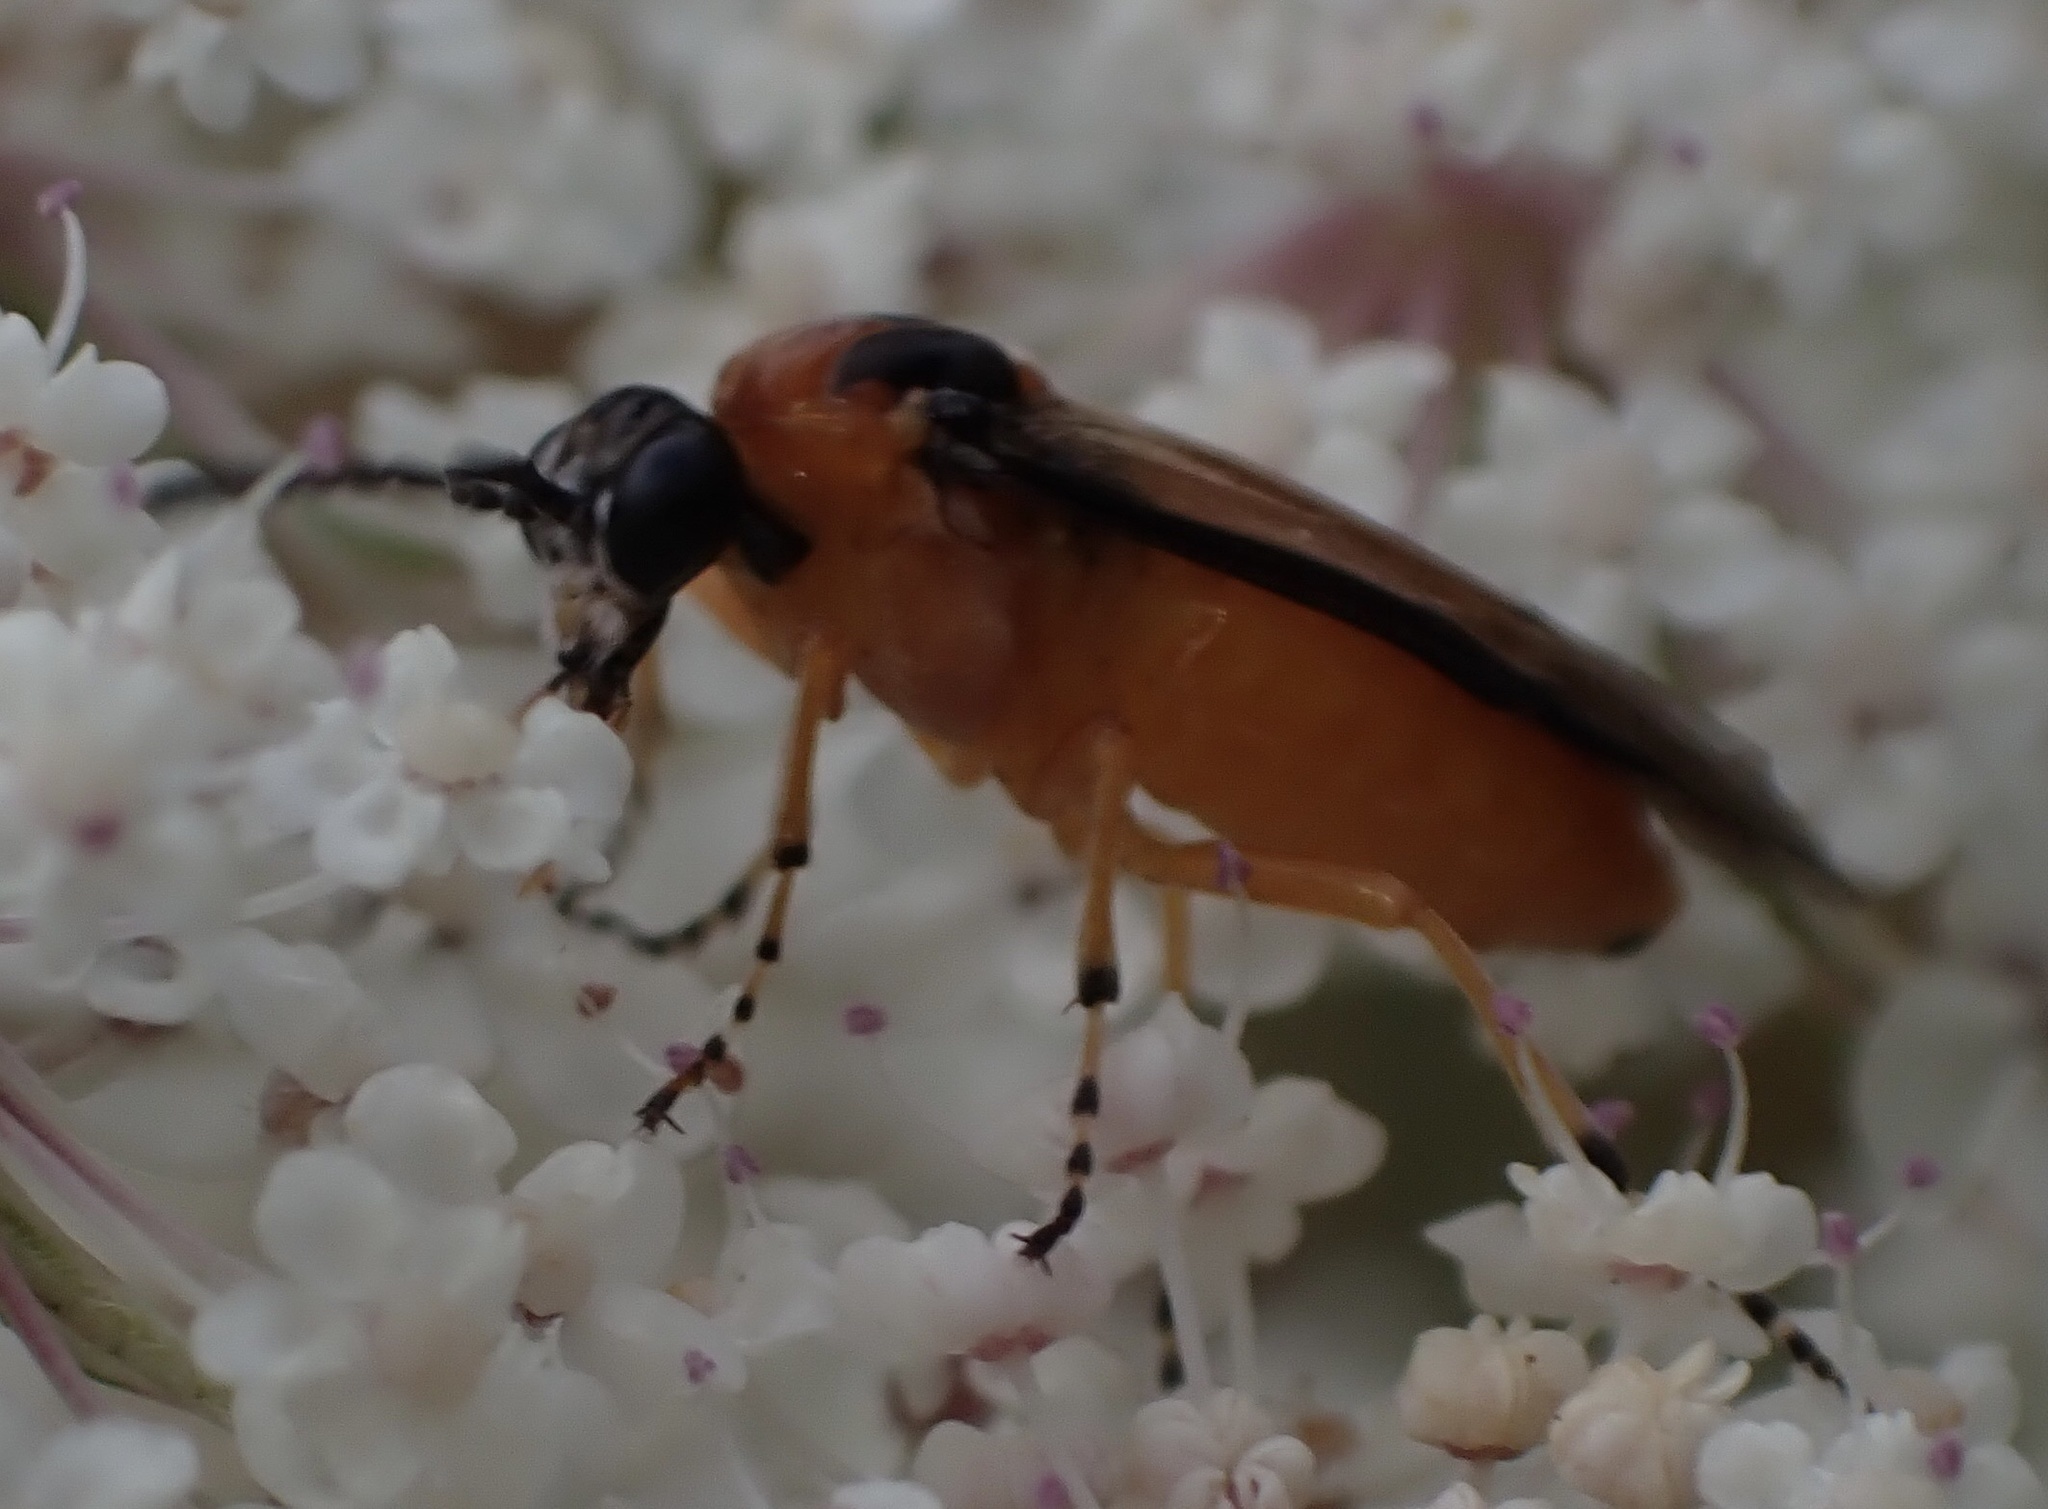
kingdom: Animalia
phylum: Arthropoda
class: Insecta
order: Hymenoptera
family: Tenthredinidae
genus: Athalia
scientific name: Athalia rosae
